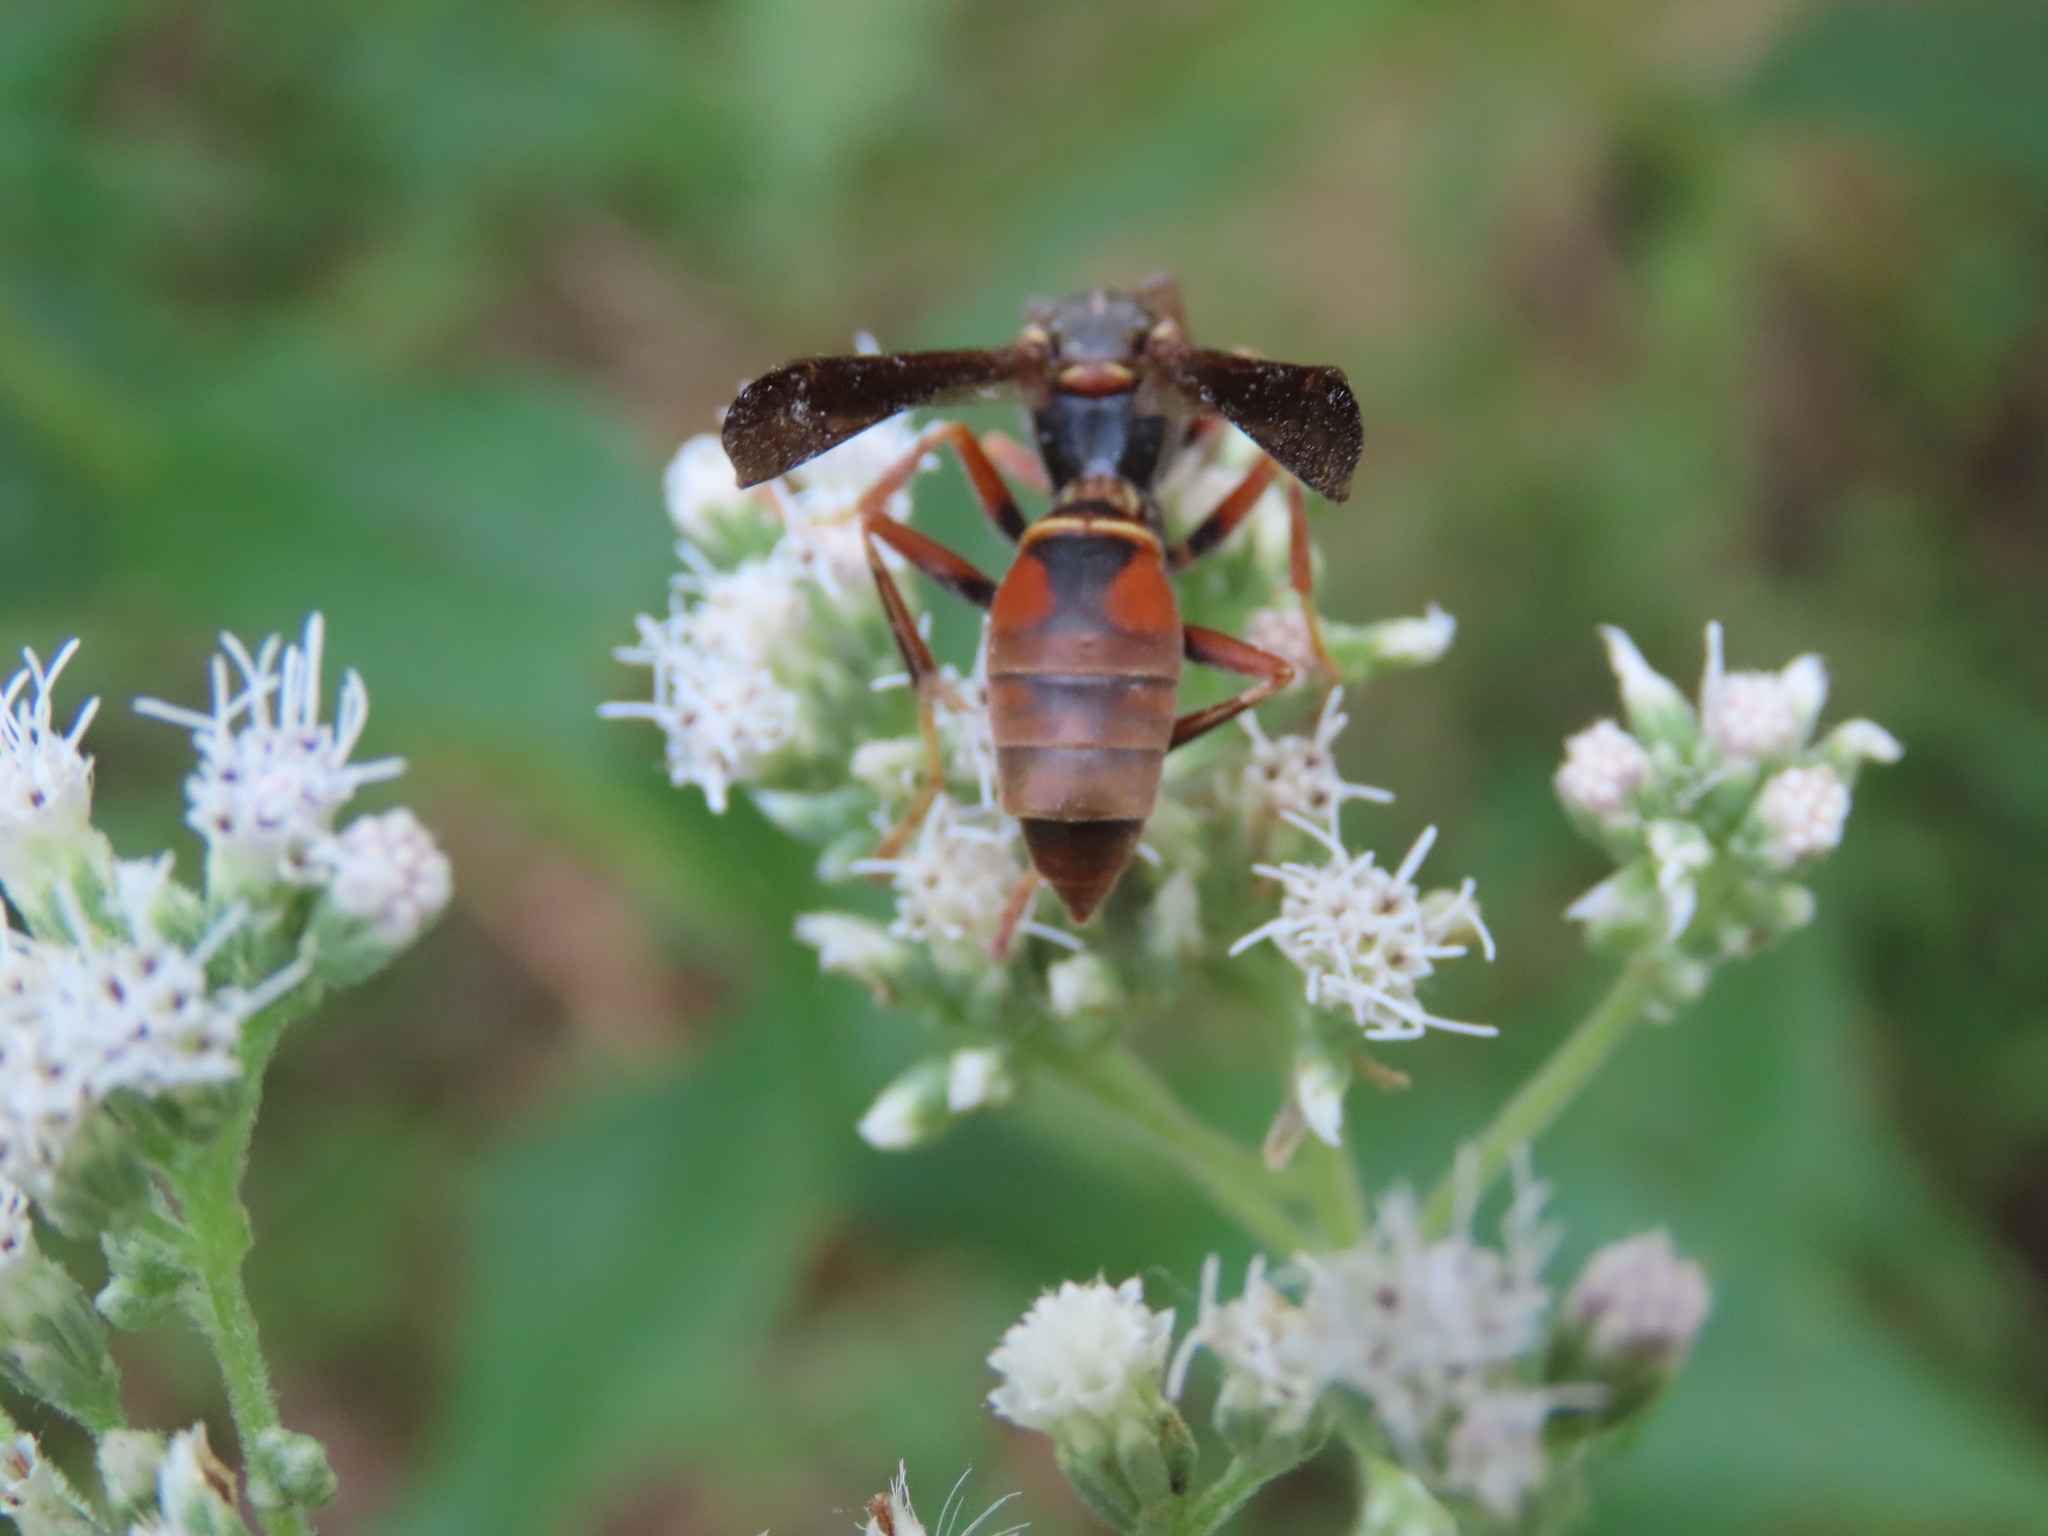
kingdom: Animalia
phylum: Arthropoda
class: Insecta
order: Hymenoptera
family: Eumenidae
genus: Polistes
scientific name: Polistes fuscatus
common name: Dark paper wasp
